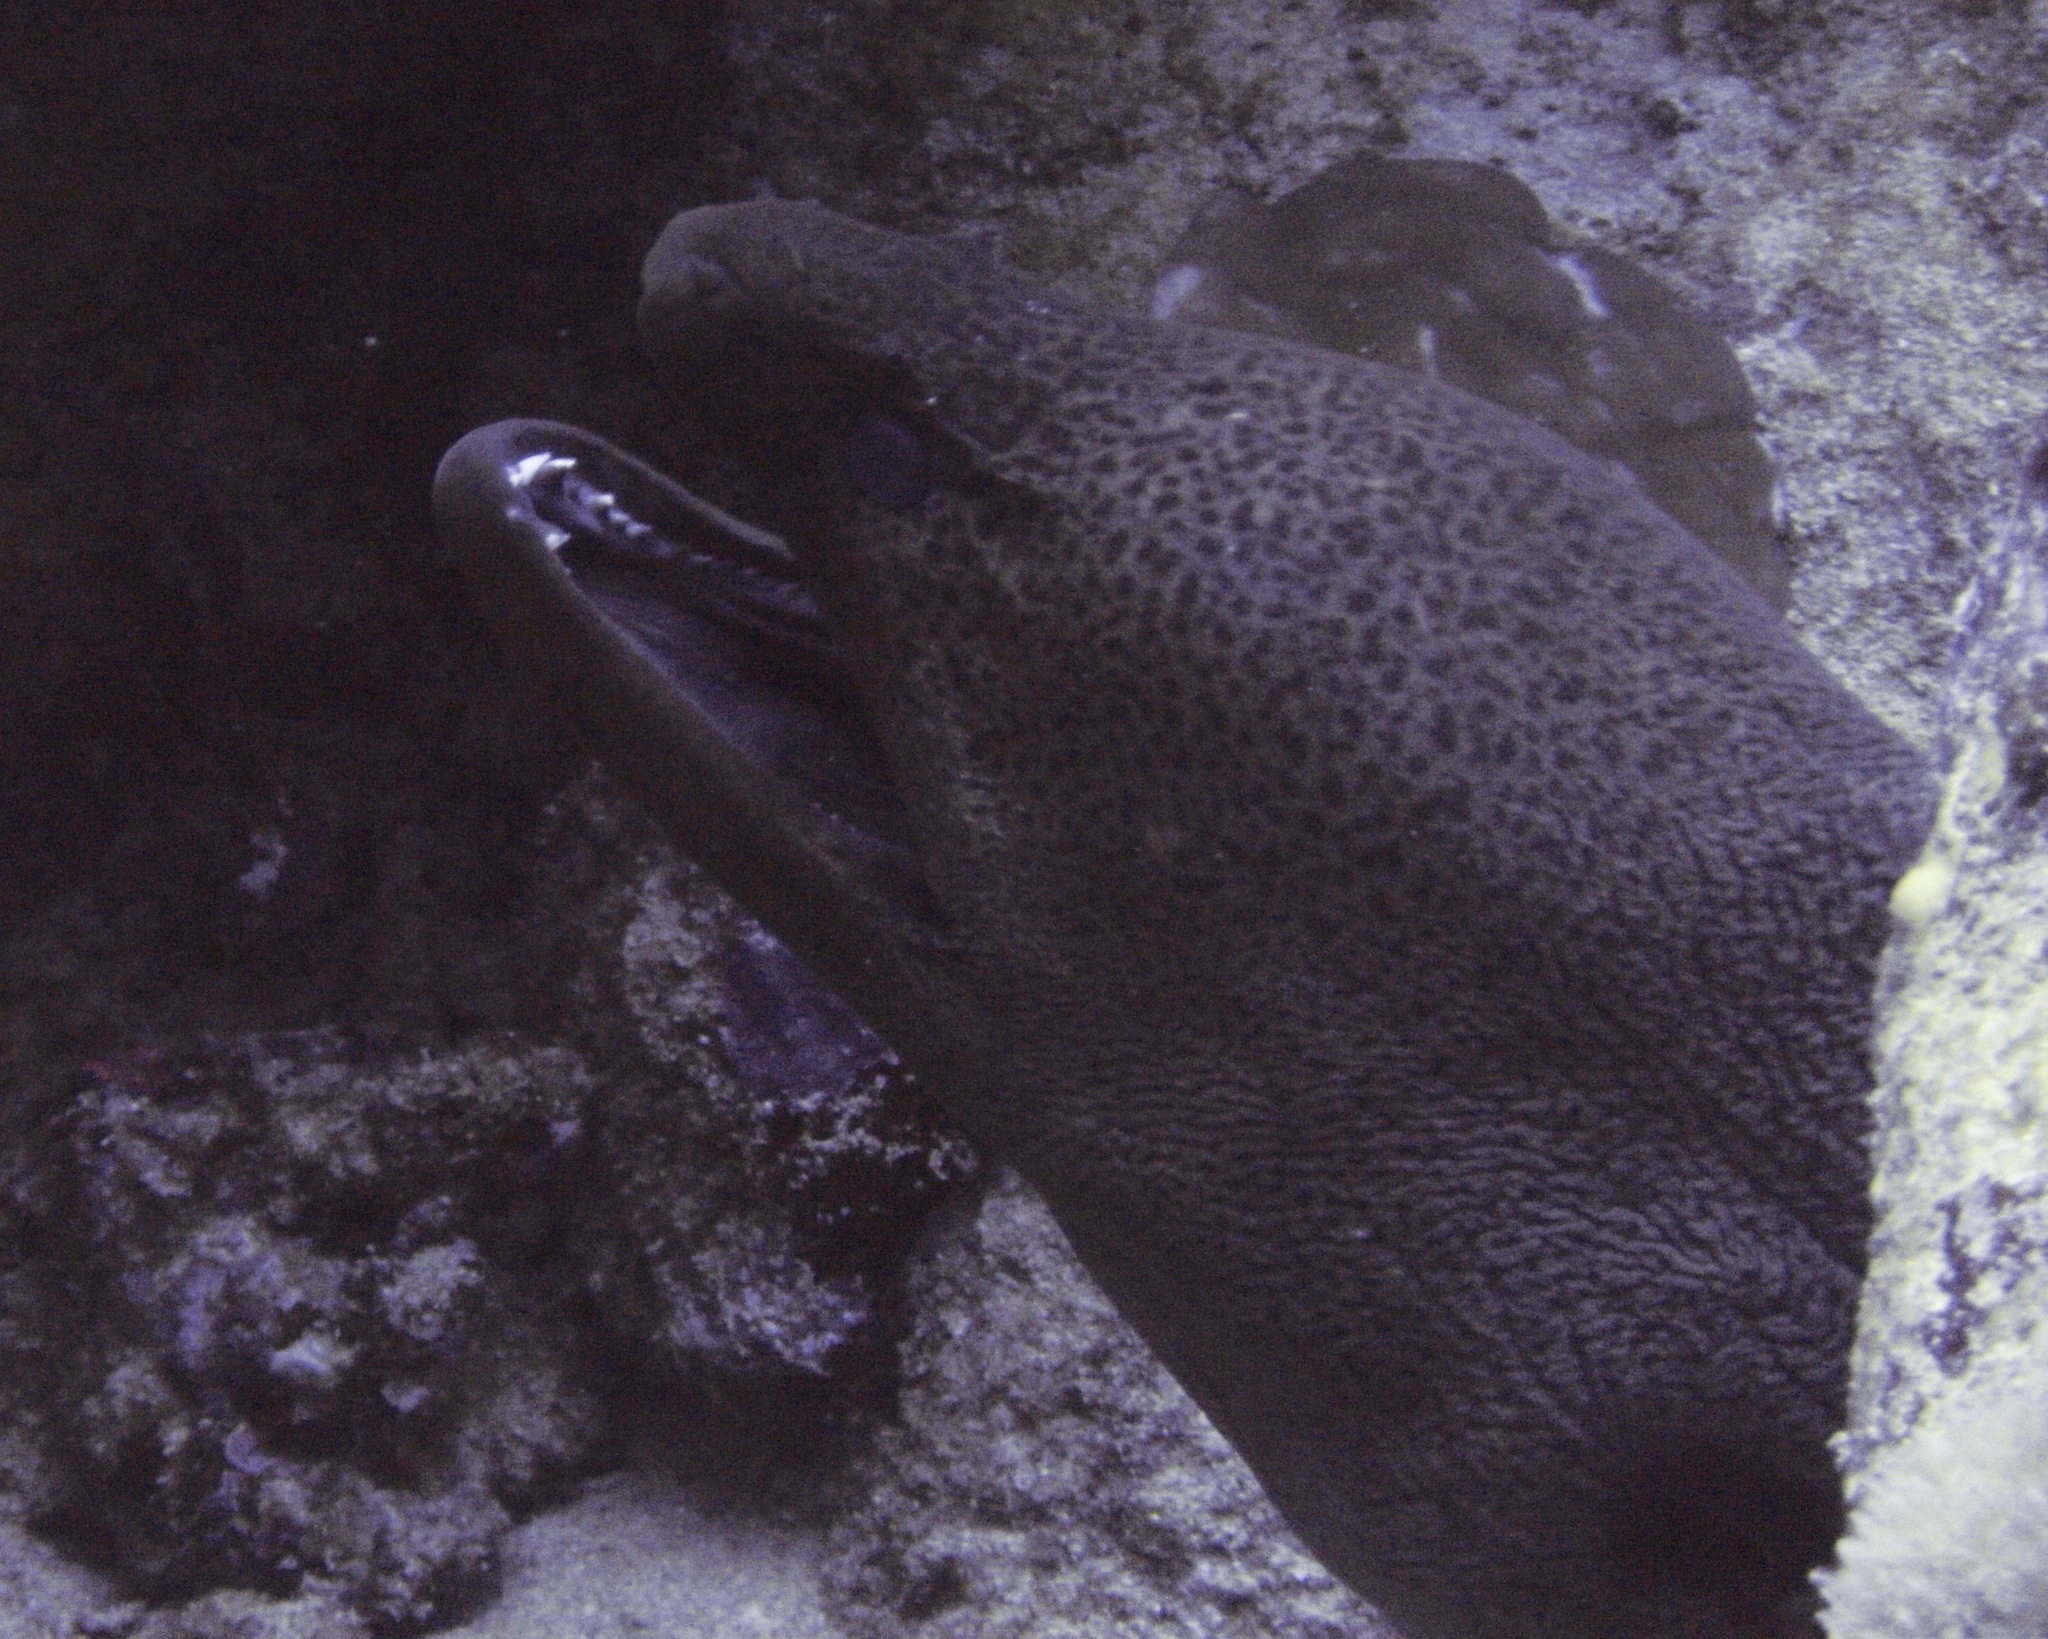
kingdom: Animalia
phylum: Chordata
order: Anguilliformes
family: Muraenidae
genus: Gymnothorax
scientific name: Gymnothorax javanicus
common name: Giant moray
